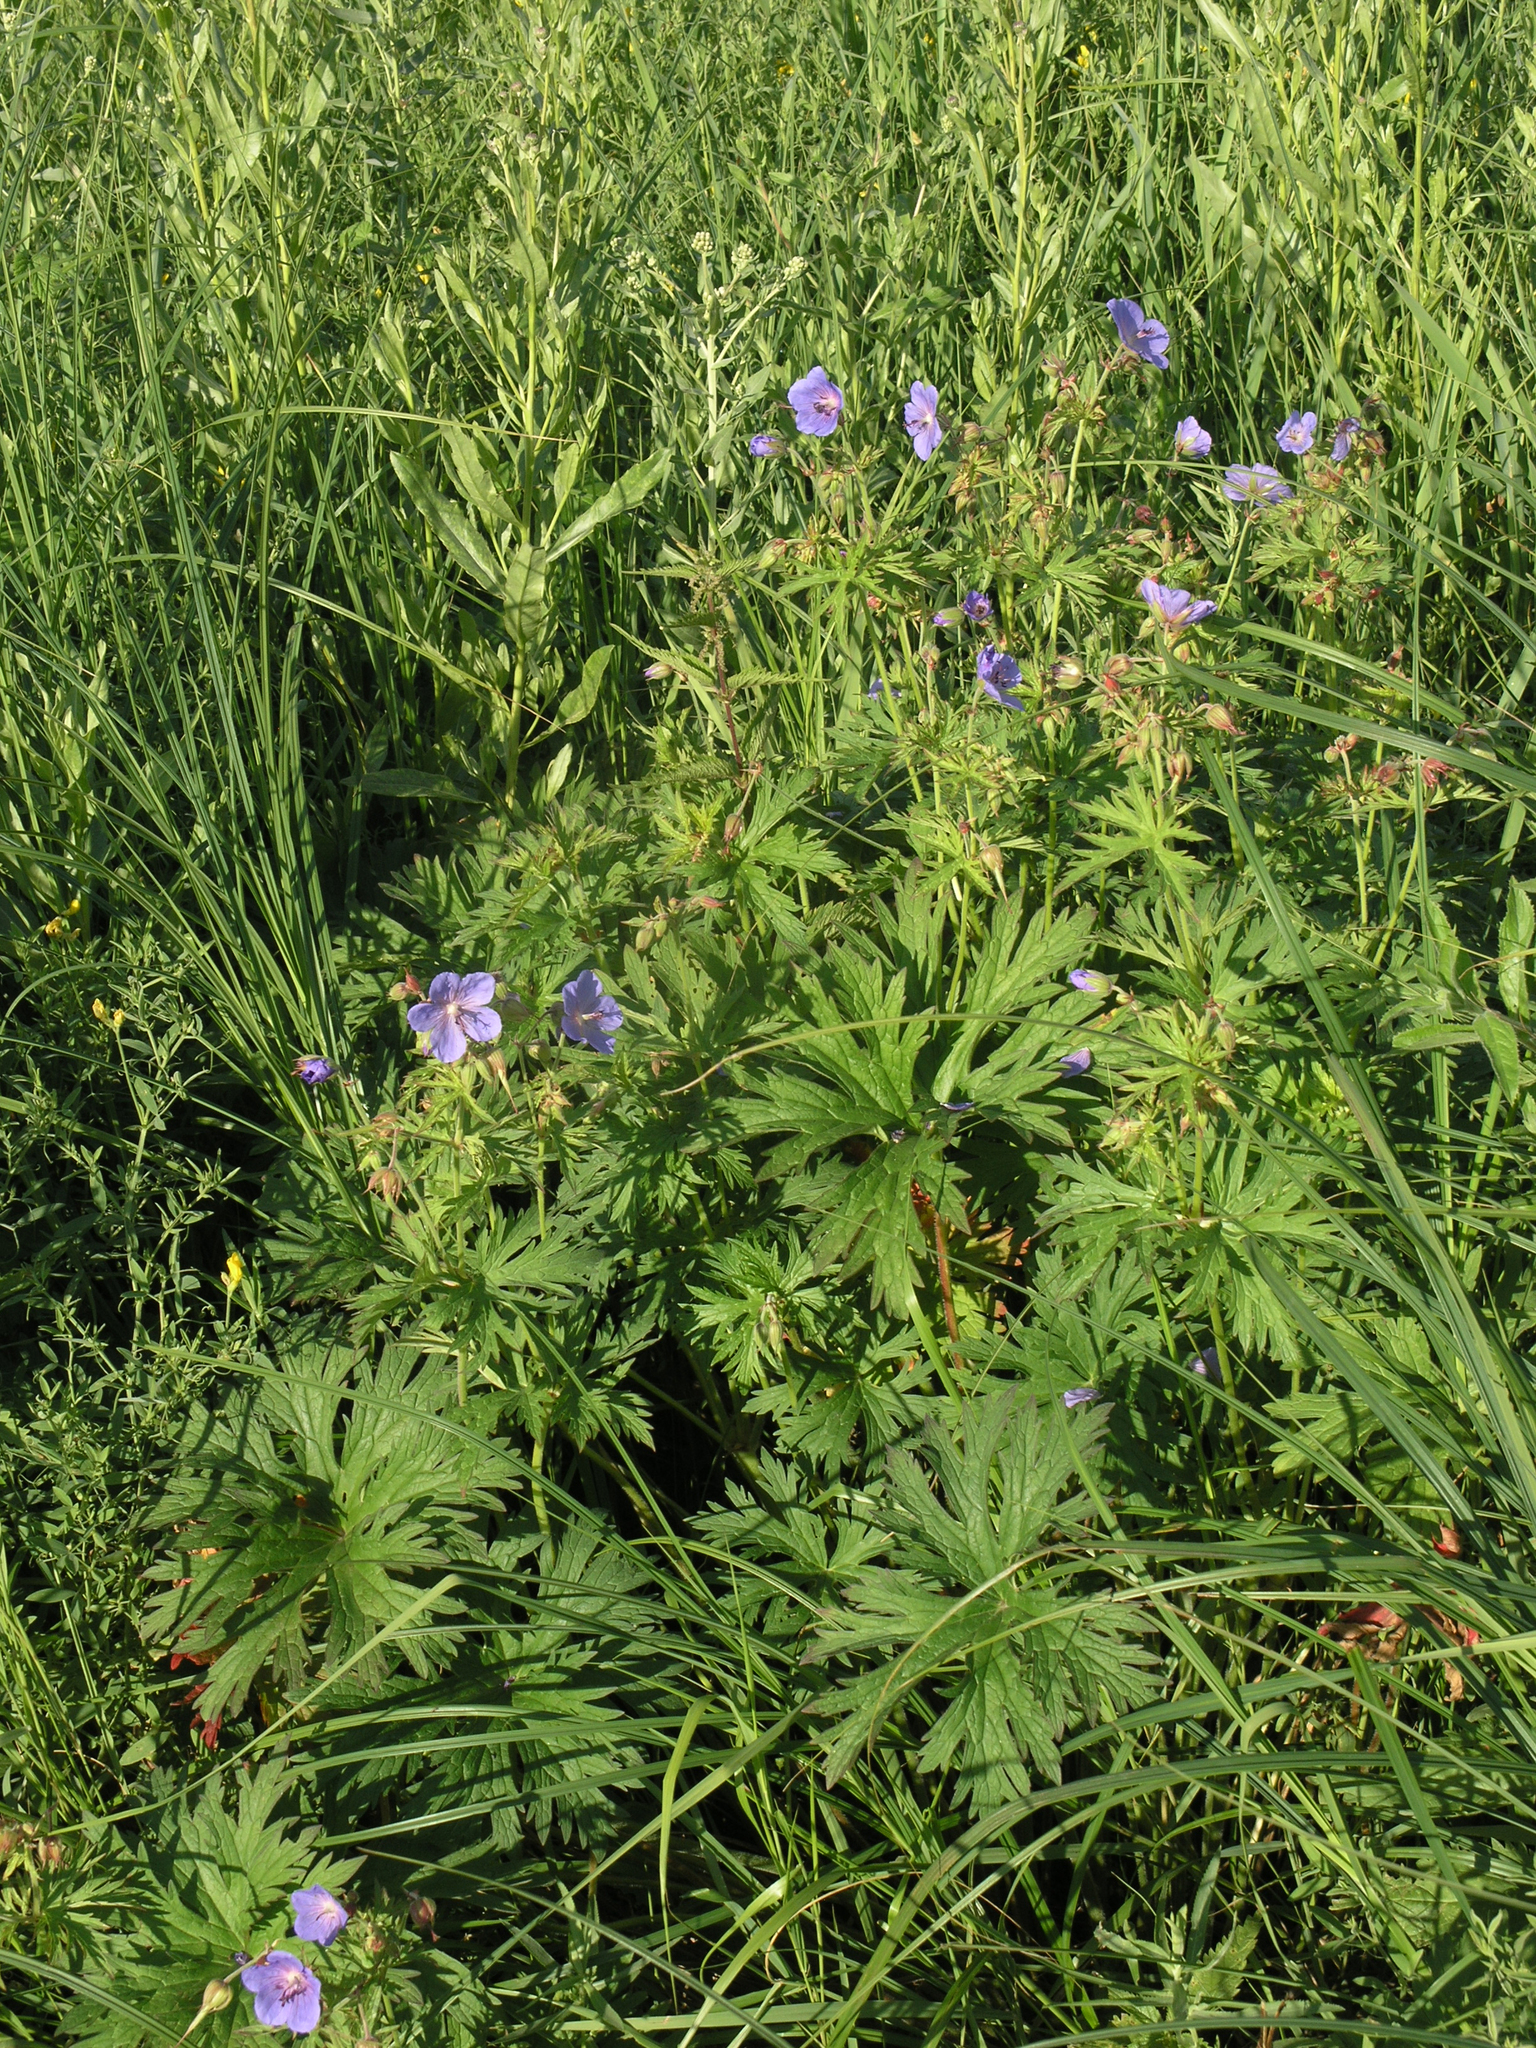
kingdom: Plantae
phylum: Tracheophyta
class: Magnoliopsida
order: Geraniales
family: Geraniaceae
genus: Geranium
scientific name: Geranium pratense
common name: Meadow crane's-bill
